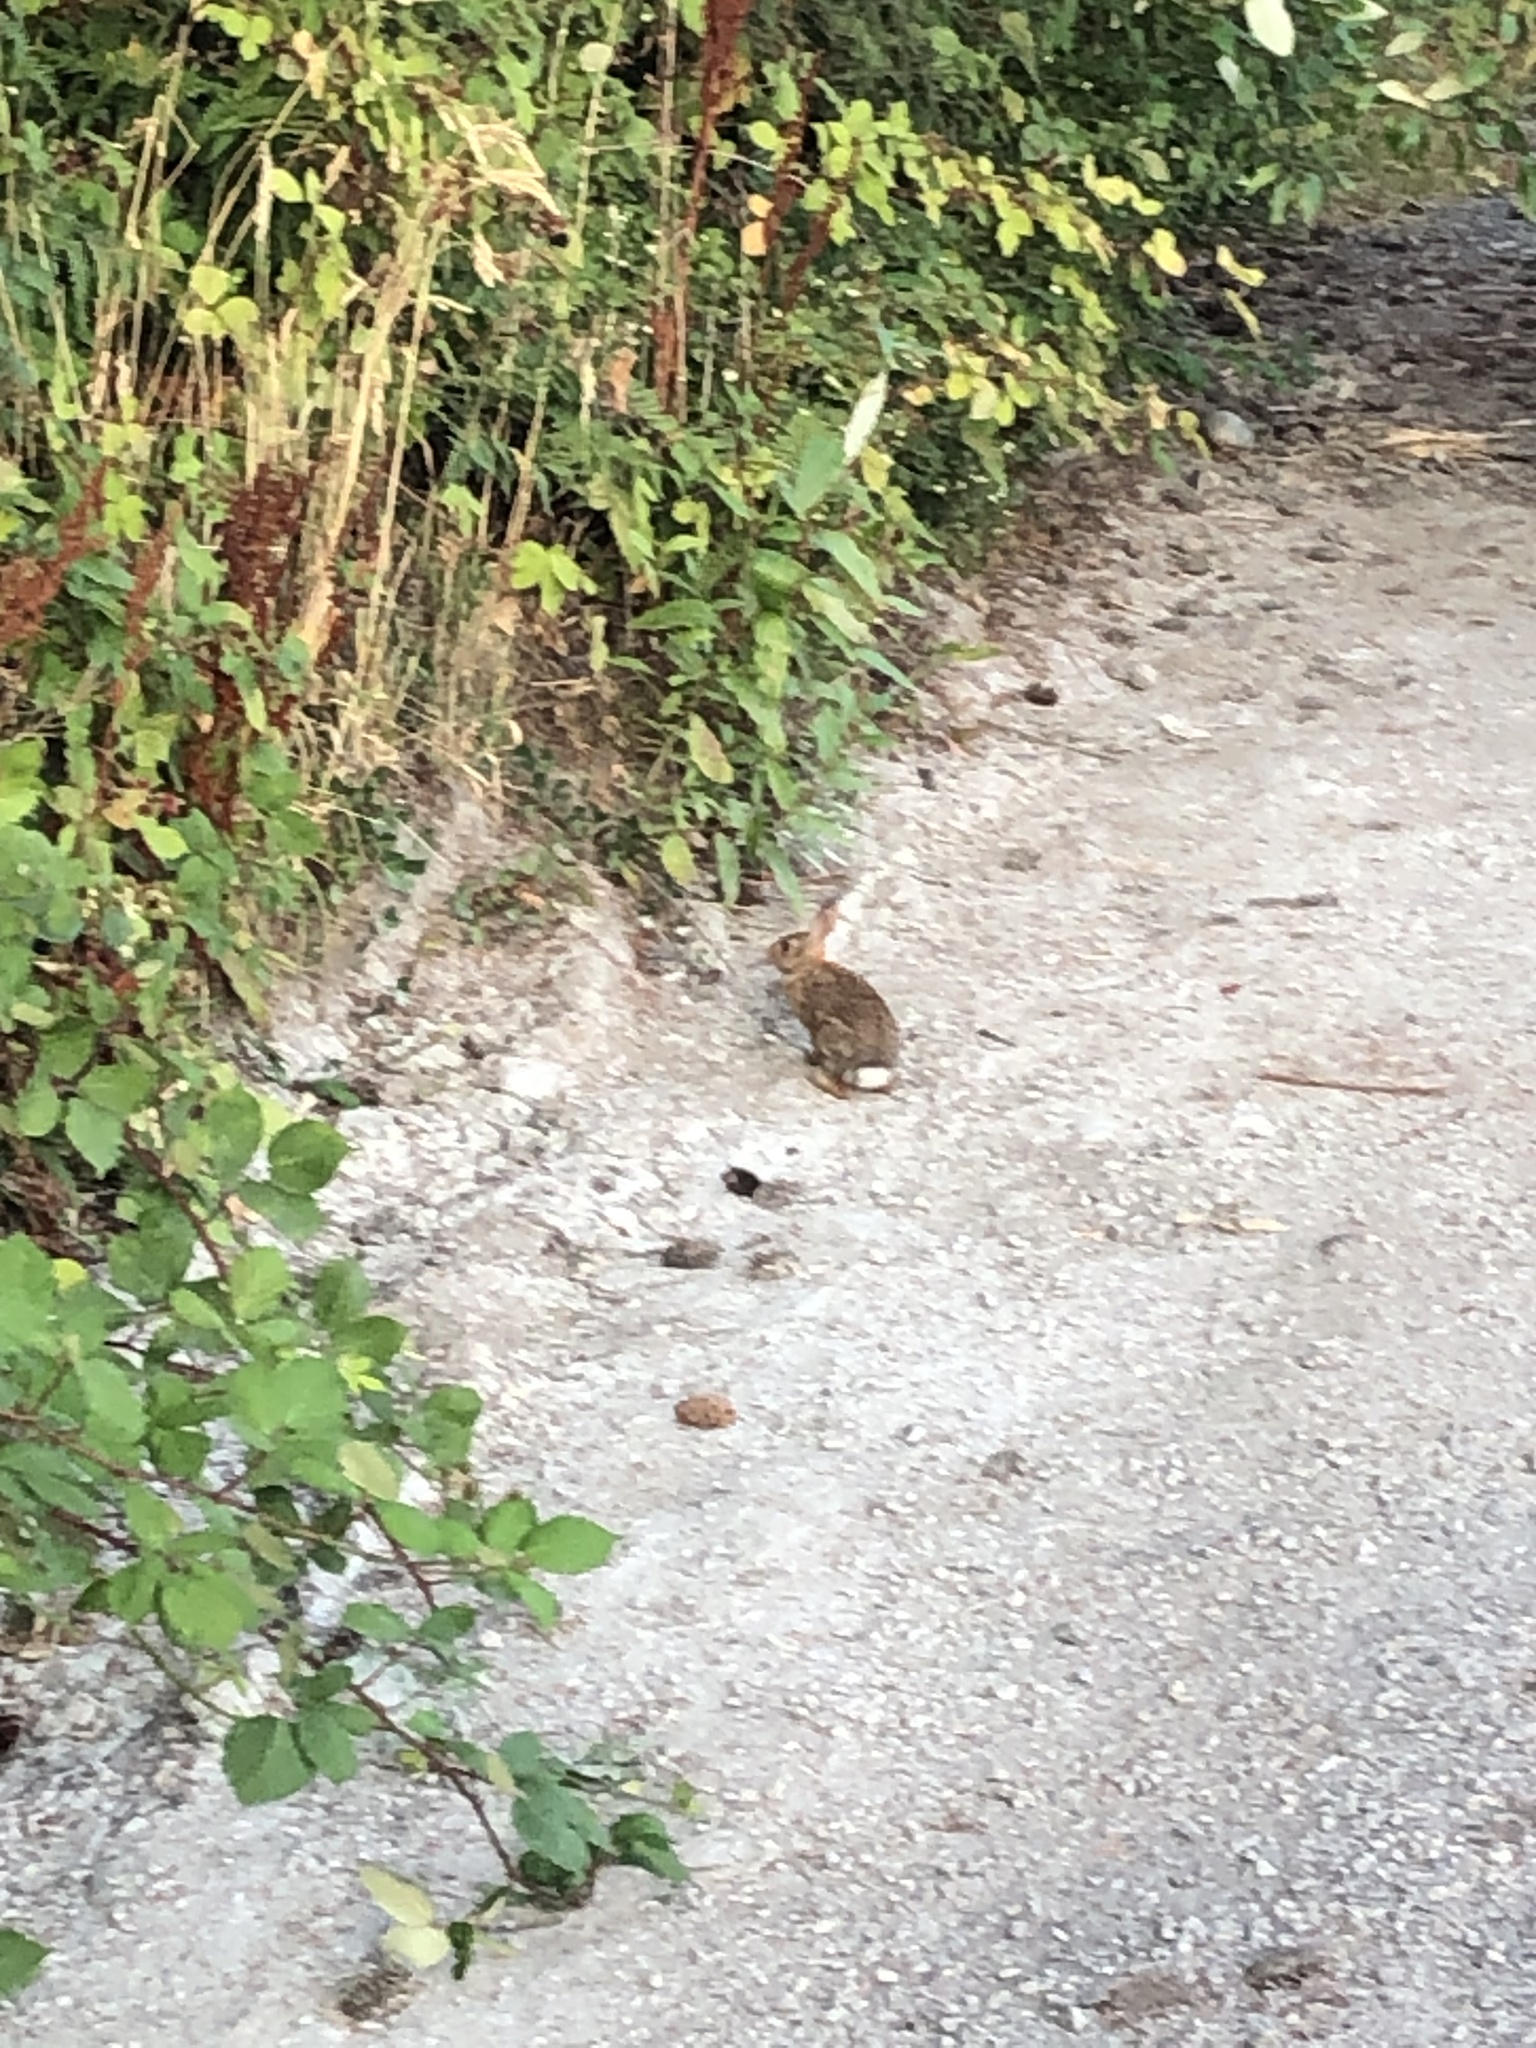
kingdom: Animalia
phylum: Chordata
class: Mammalia
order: Lagomorpha
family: Leporidae
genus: Sylvilagus
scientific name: Sylvilagus floridanus
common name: Eastern cottontail
